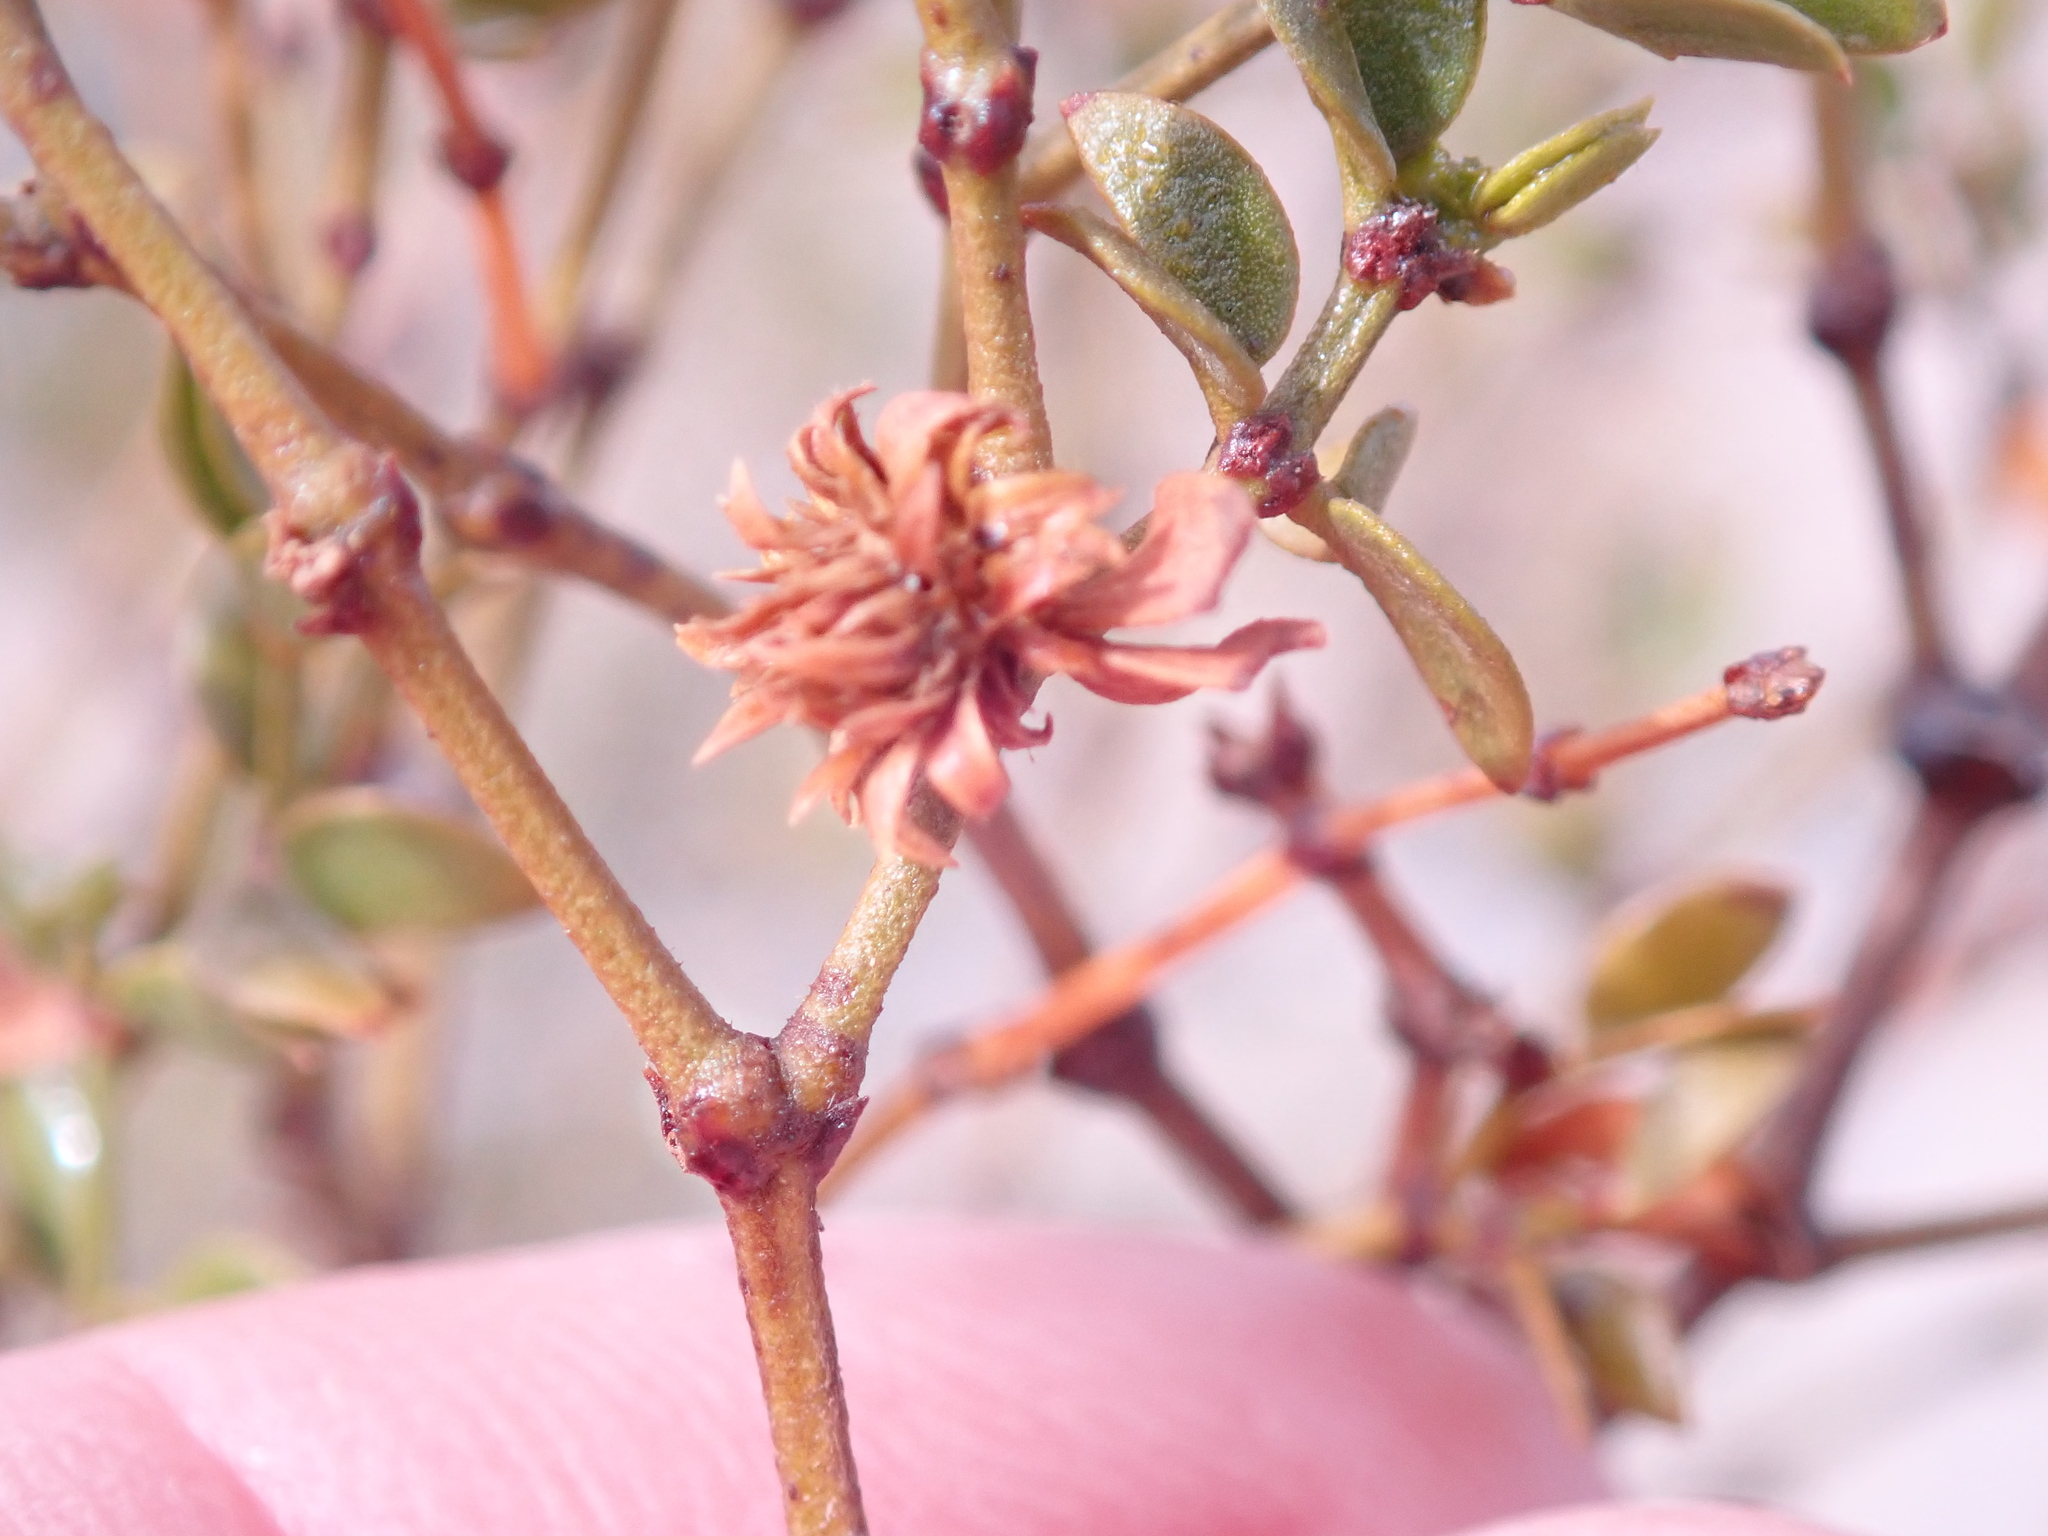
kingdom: Animalia
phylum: Arthropoda
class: Insecta
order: Diptera
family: Cecidomyiidae
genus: Asphondylia
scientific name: Asphondylia rosetta
